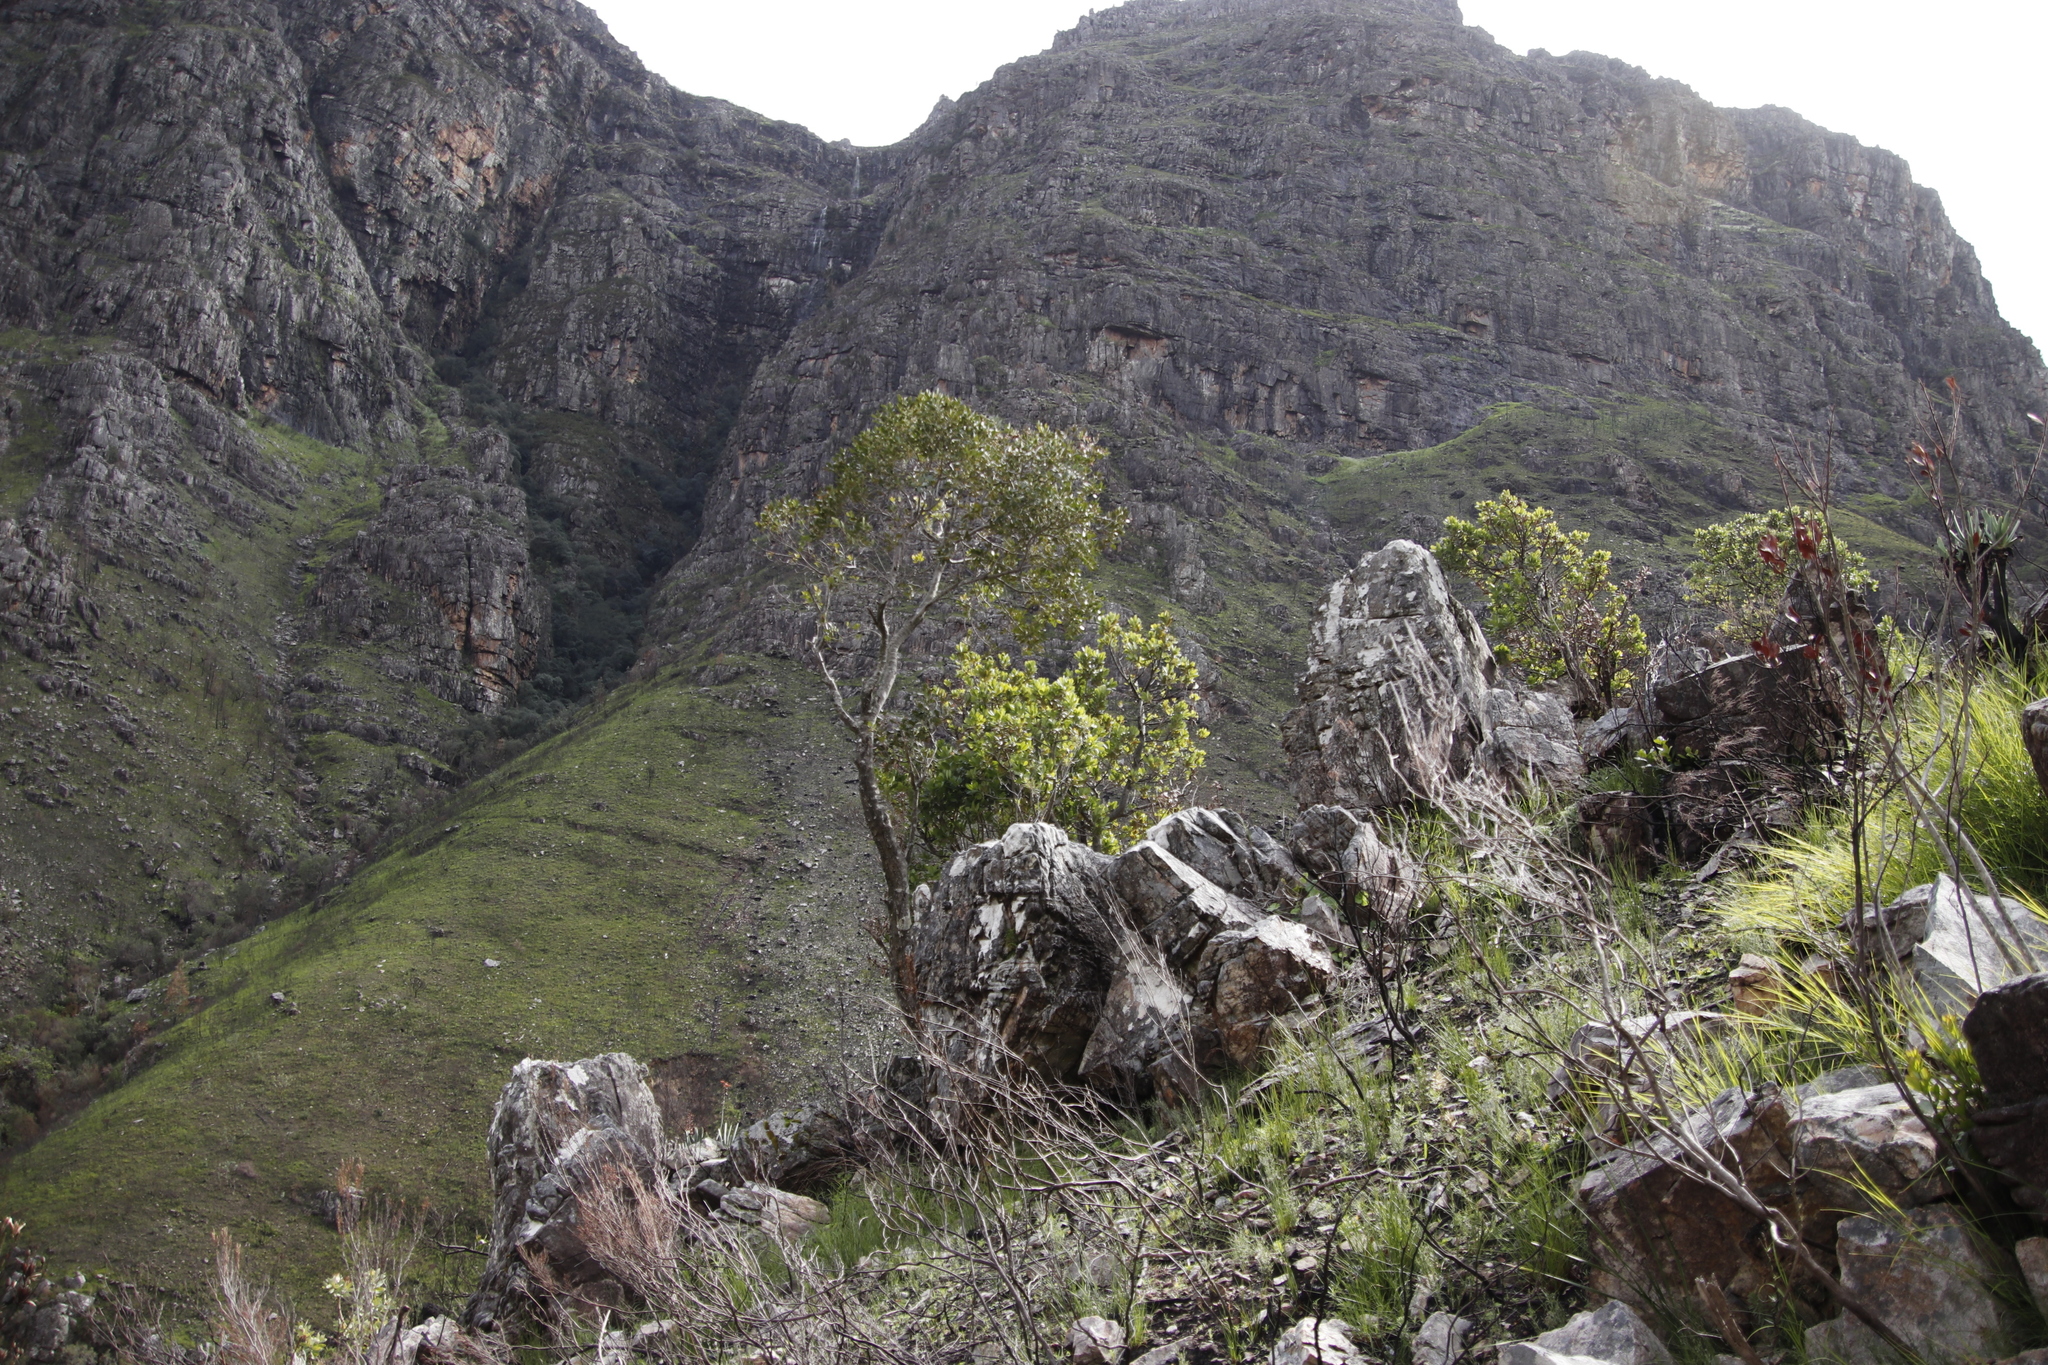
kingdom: Plantae
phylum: Tracheophyta
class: Magnoliopsida
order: Celastrales
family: Celastraceae
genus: Elaeodendron
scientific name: Elaeodendron schinoides
